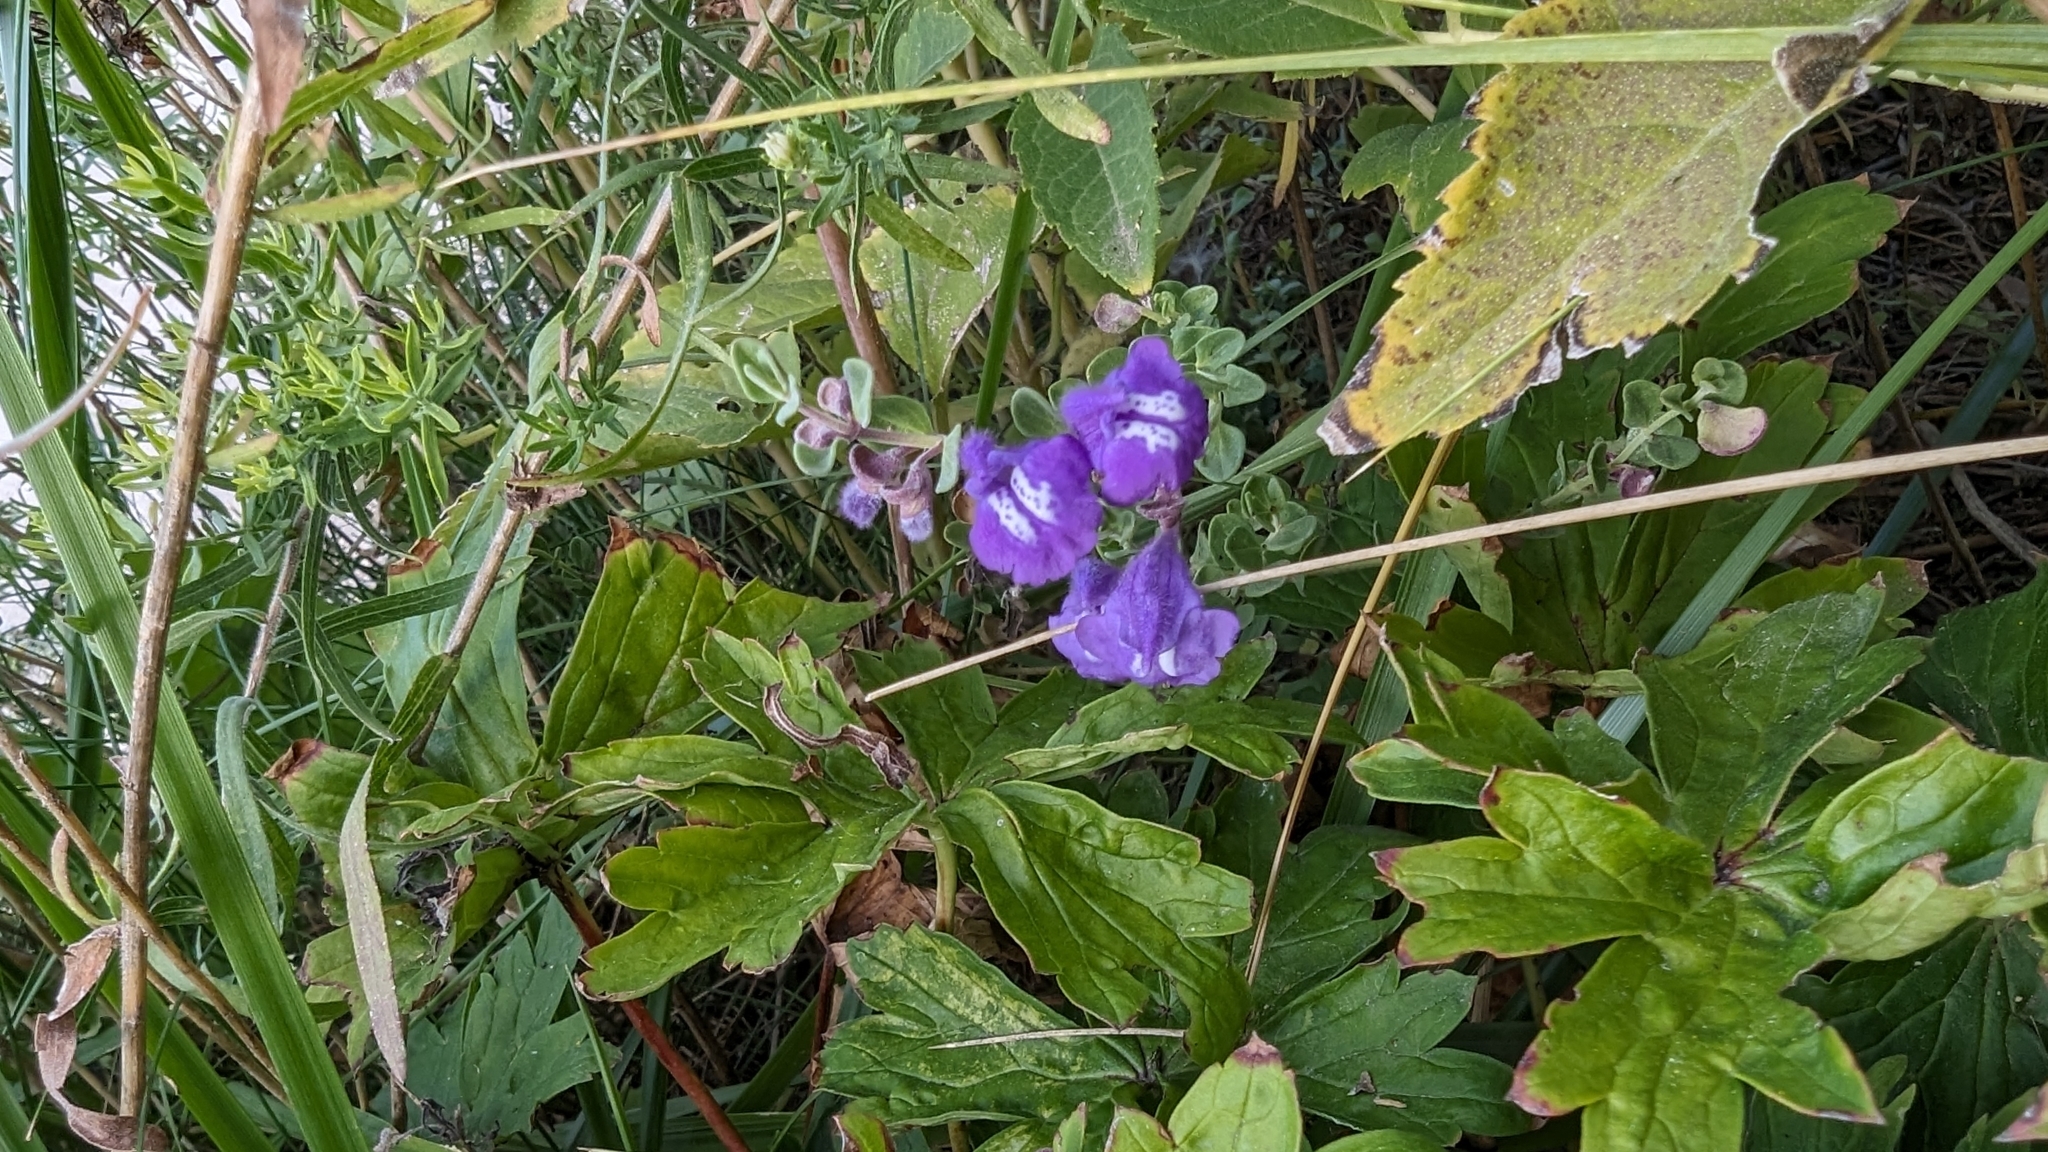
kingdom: Plantae
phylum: Tracheophyta
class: Magnoliopsida
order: Lamiales
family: Lamiaceae
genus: Scutellaria
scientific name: Scutellaria brittonii
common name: Britton's skullcap
